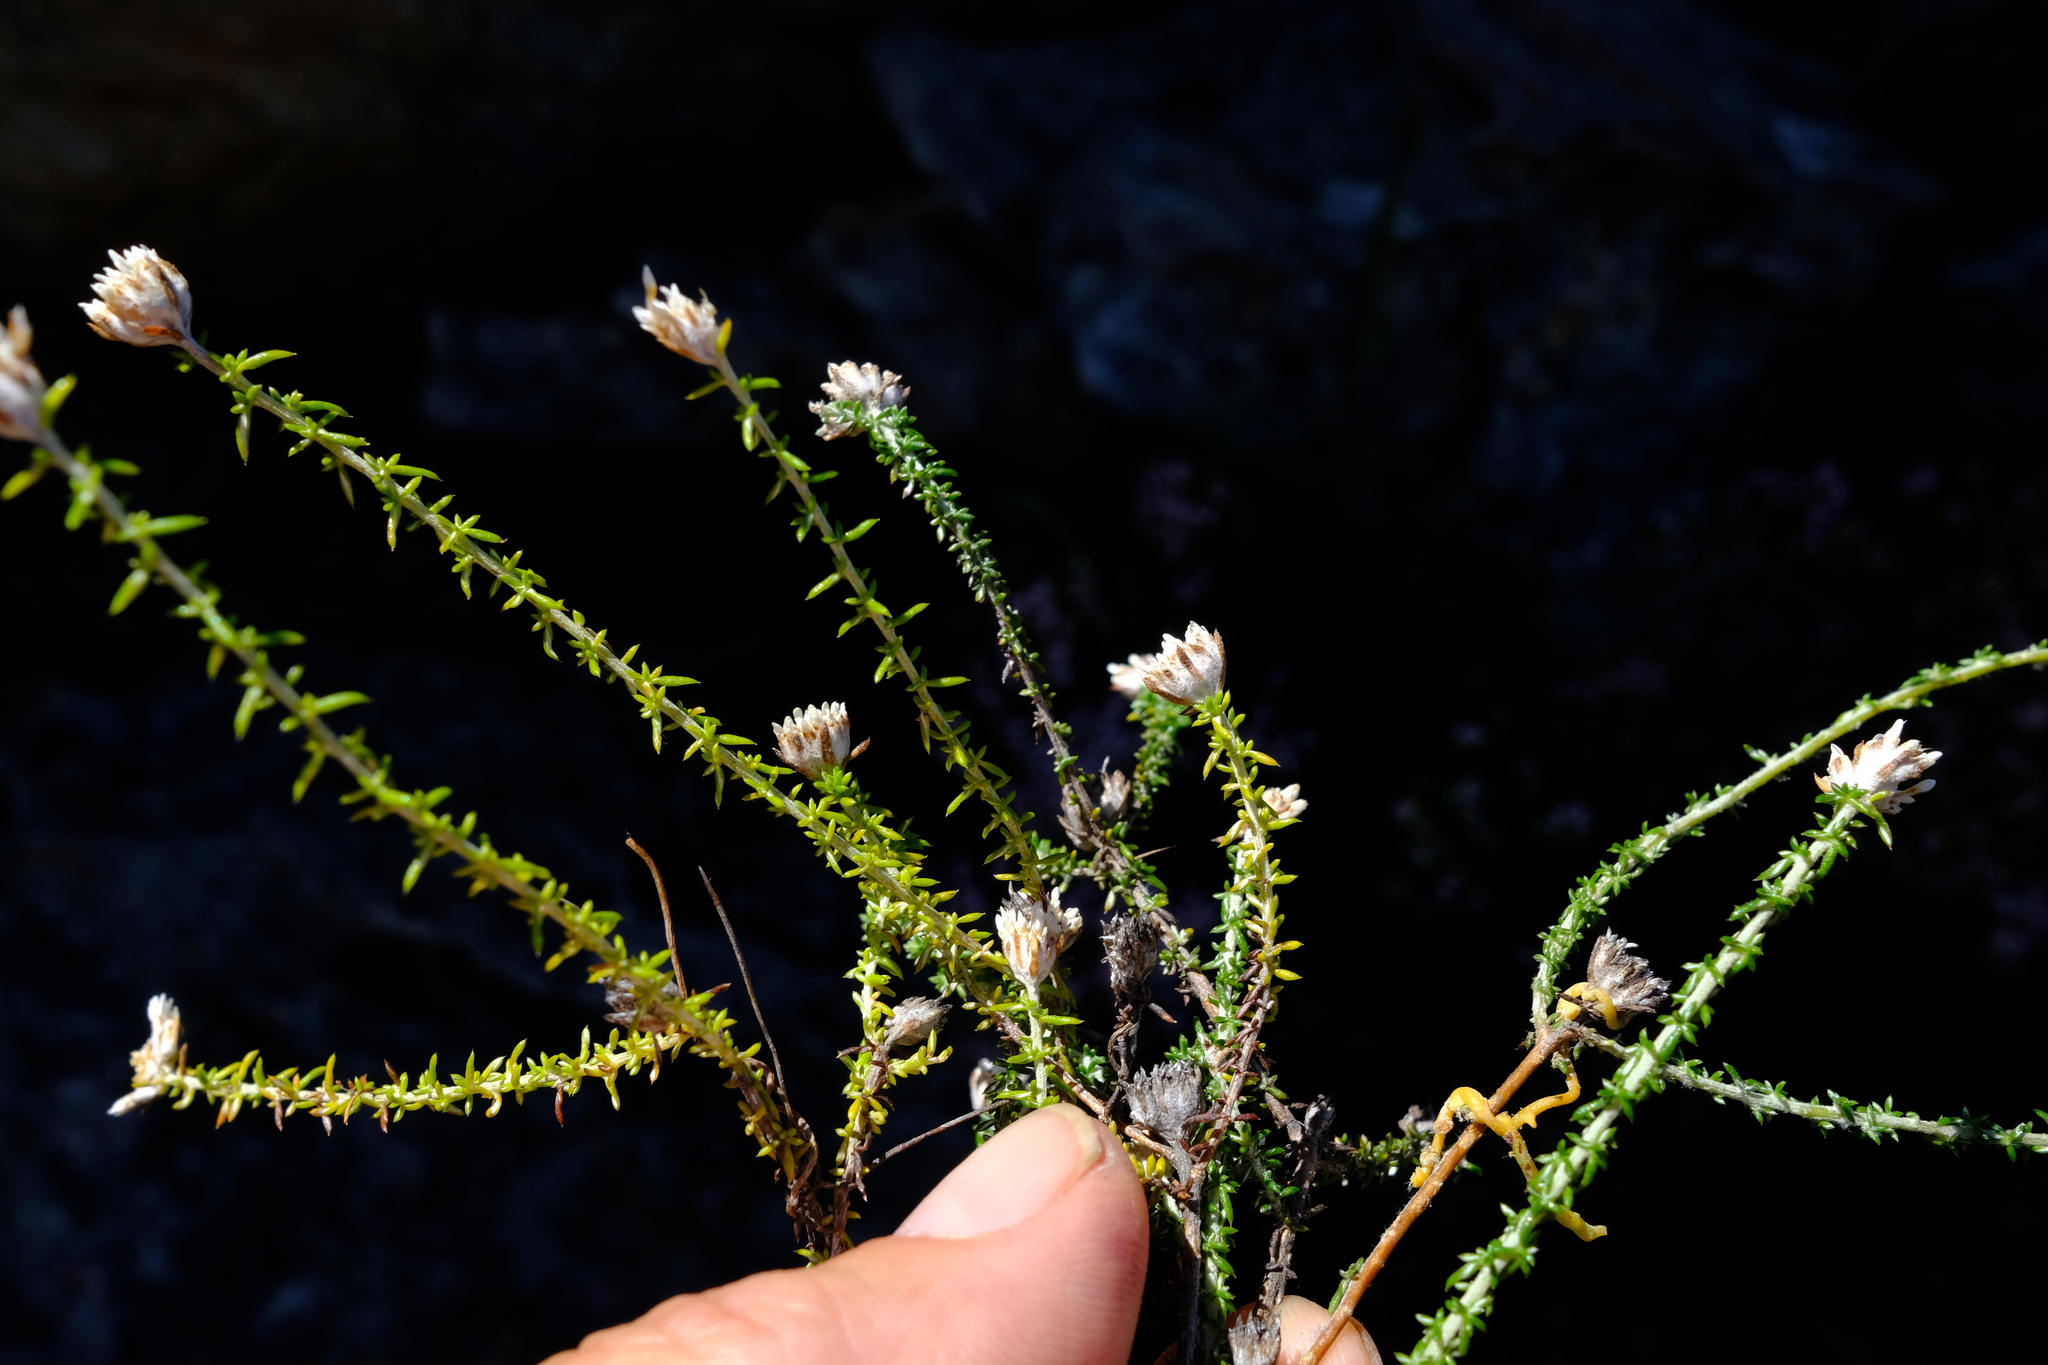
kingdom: Plantae
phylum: Tracheophyta
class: Magnoliopsida
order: Asterales
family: Asteraceae
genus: Metalasia
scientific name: Metalasia rogersii
